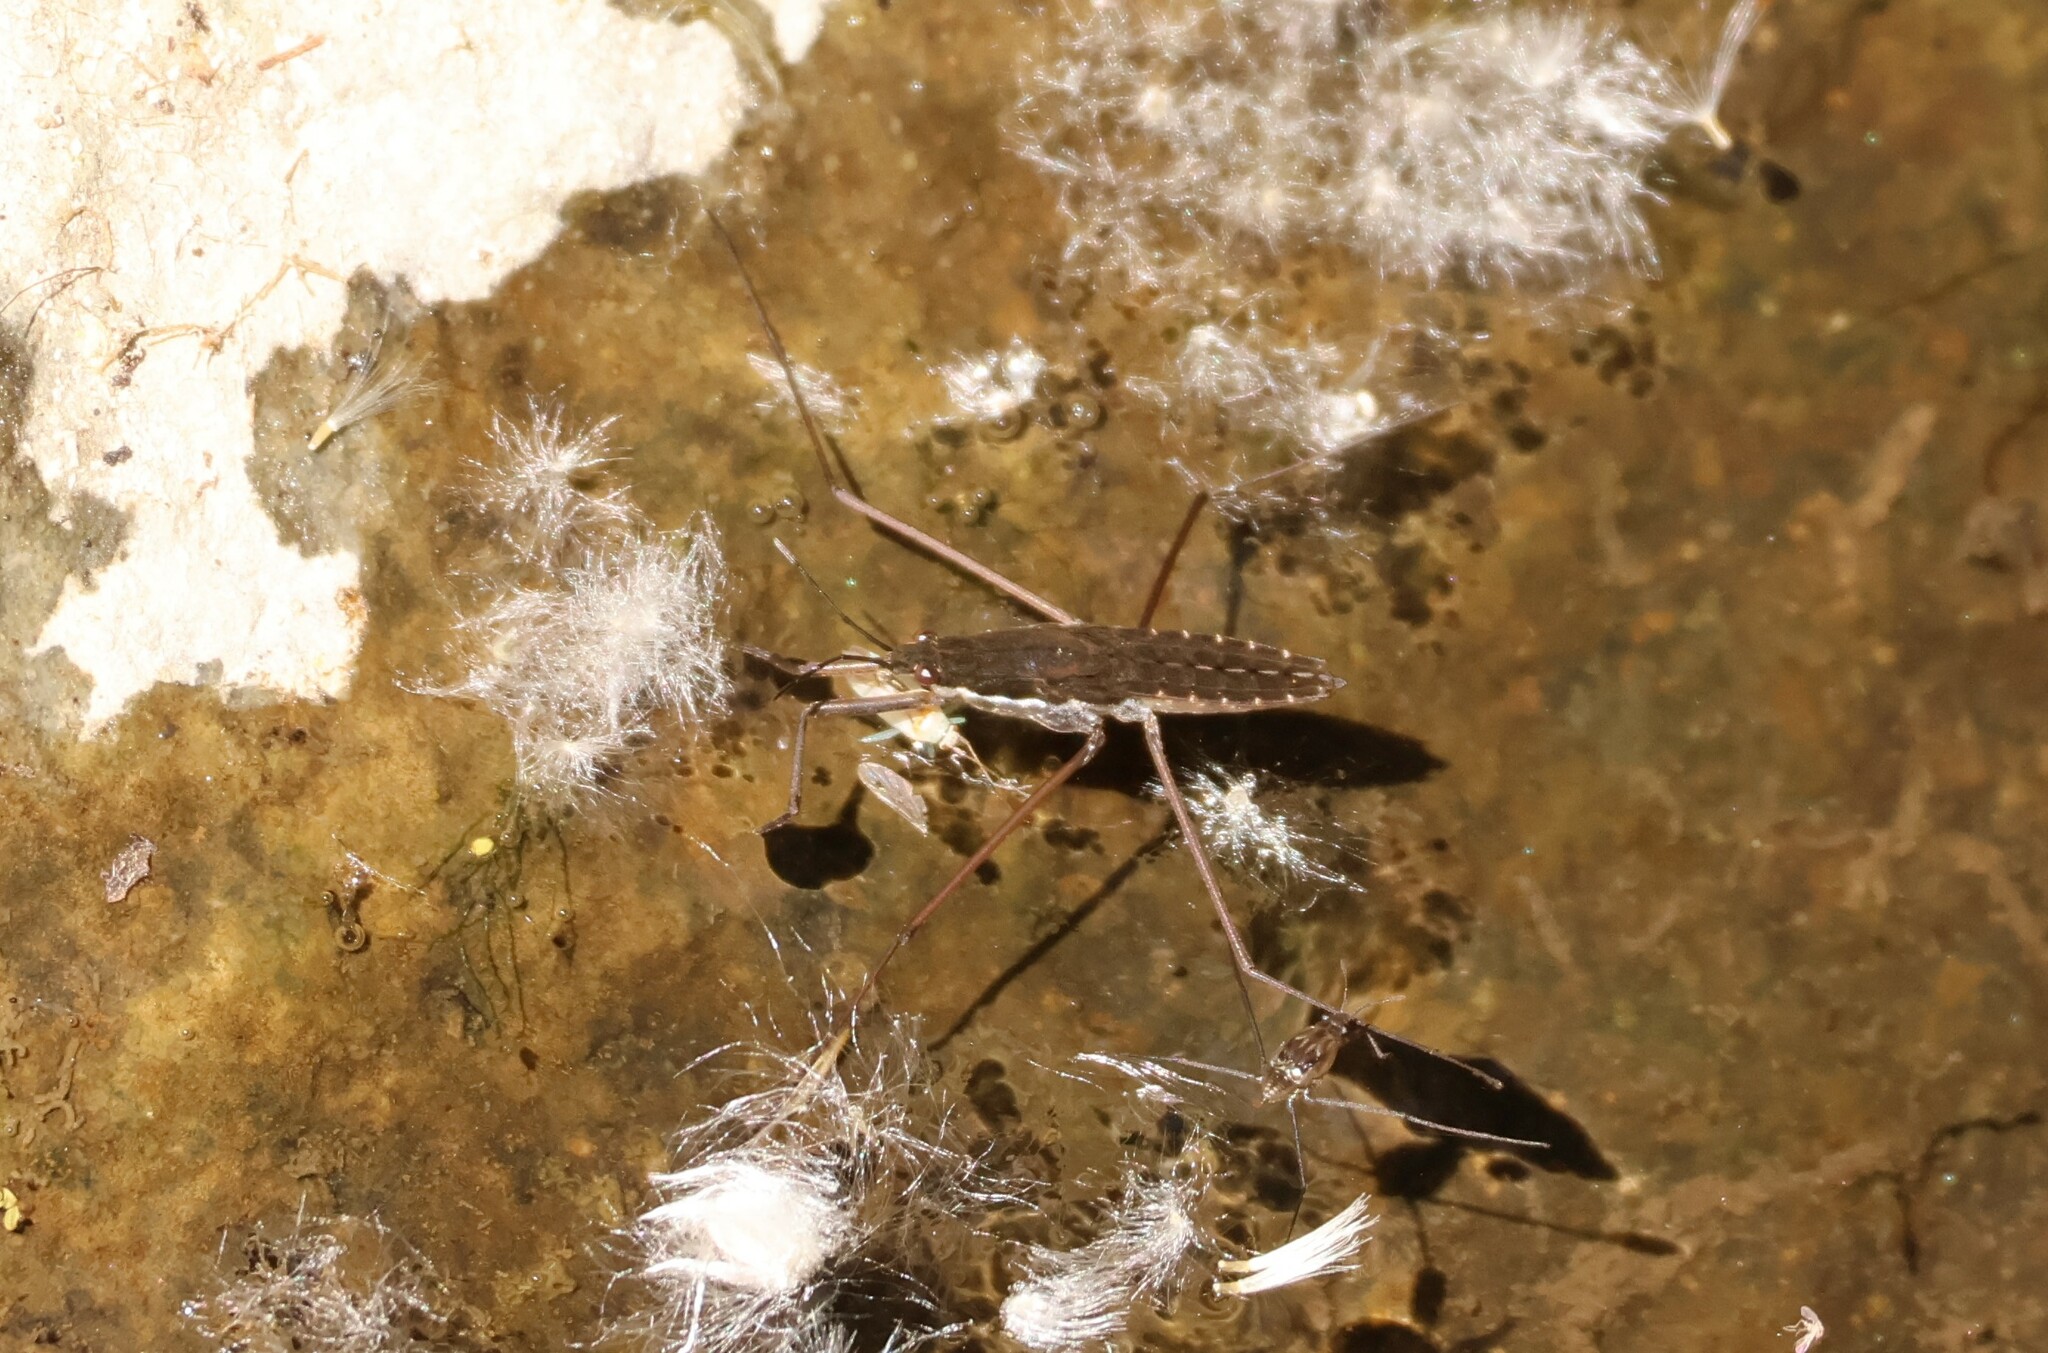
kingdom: Animalia
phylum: Arthropoda
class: Insecta
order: Hemiptera
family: Gerridae
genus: Aquarius
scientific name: Aquarius remigis
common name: Common water strider
